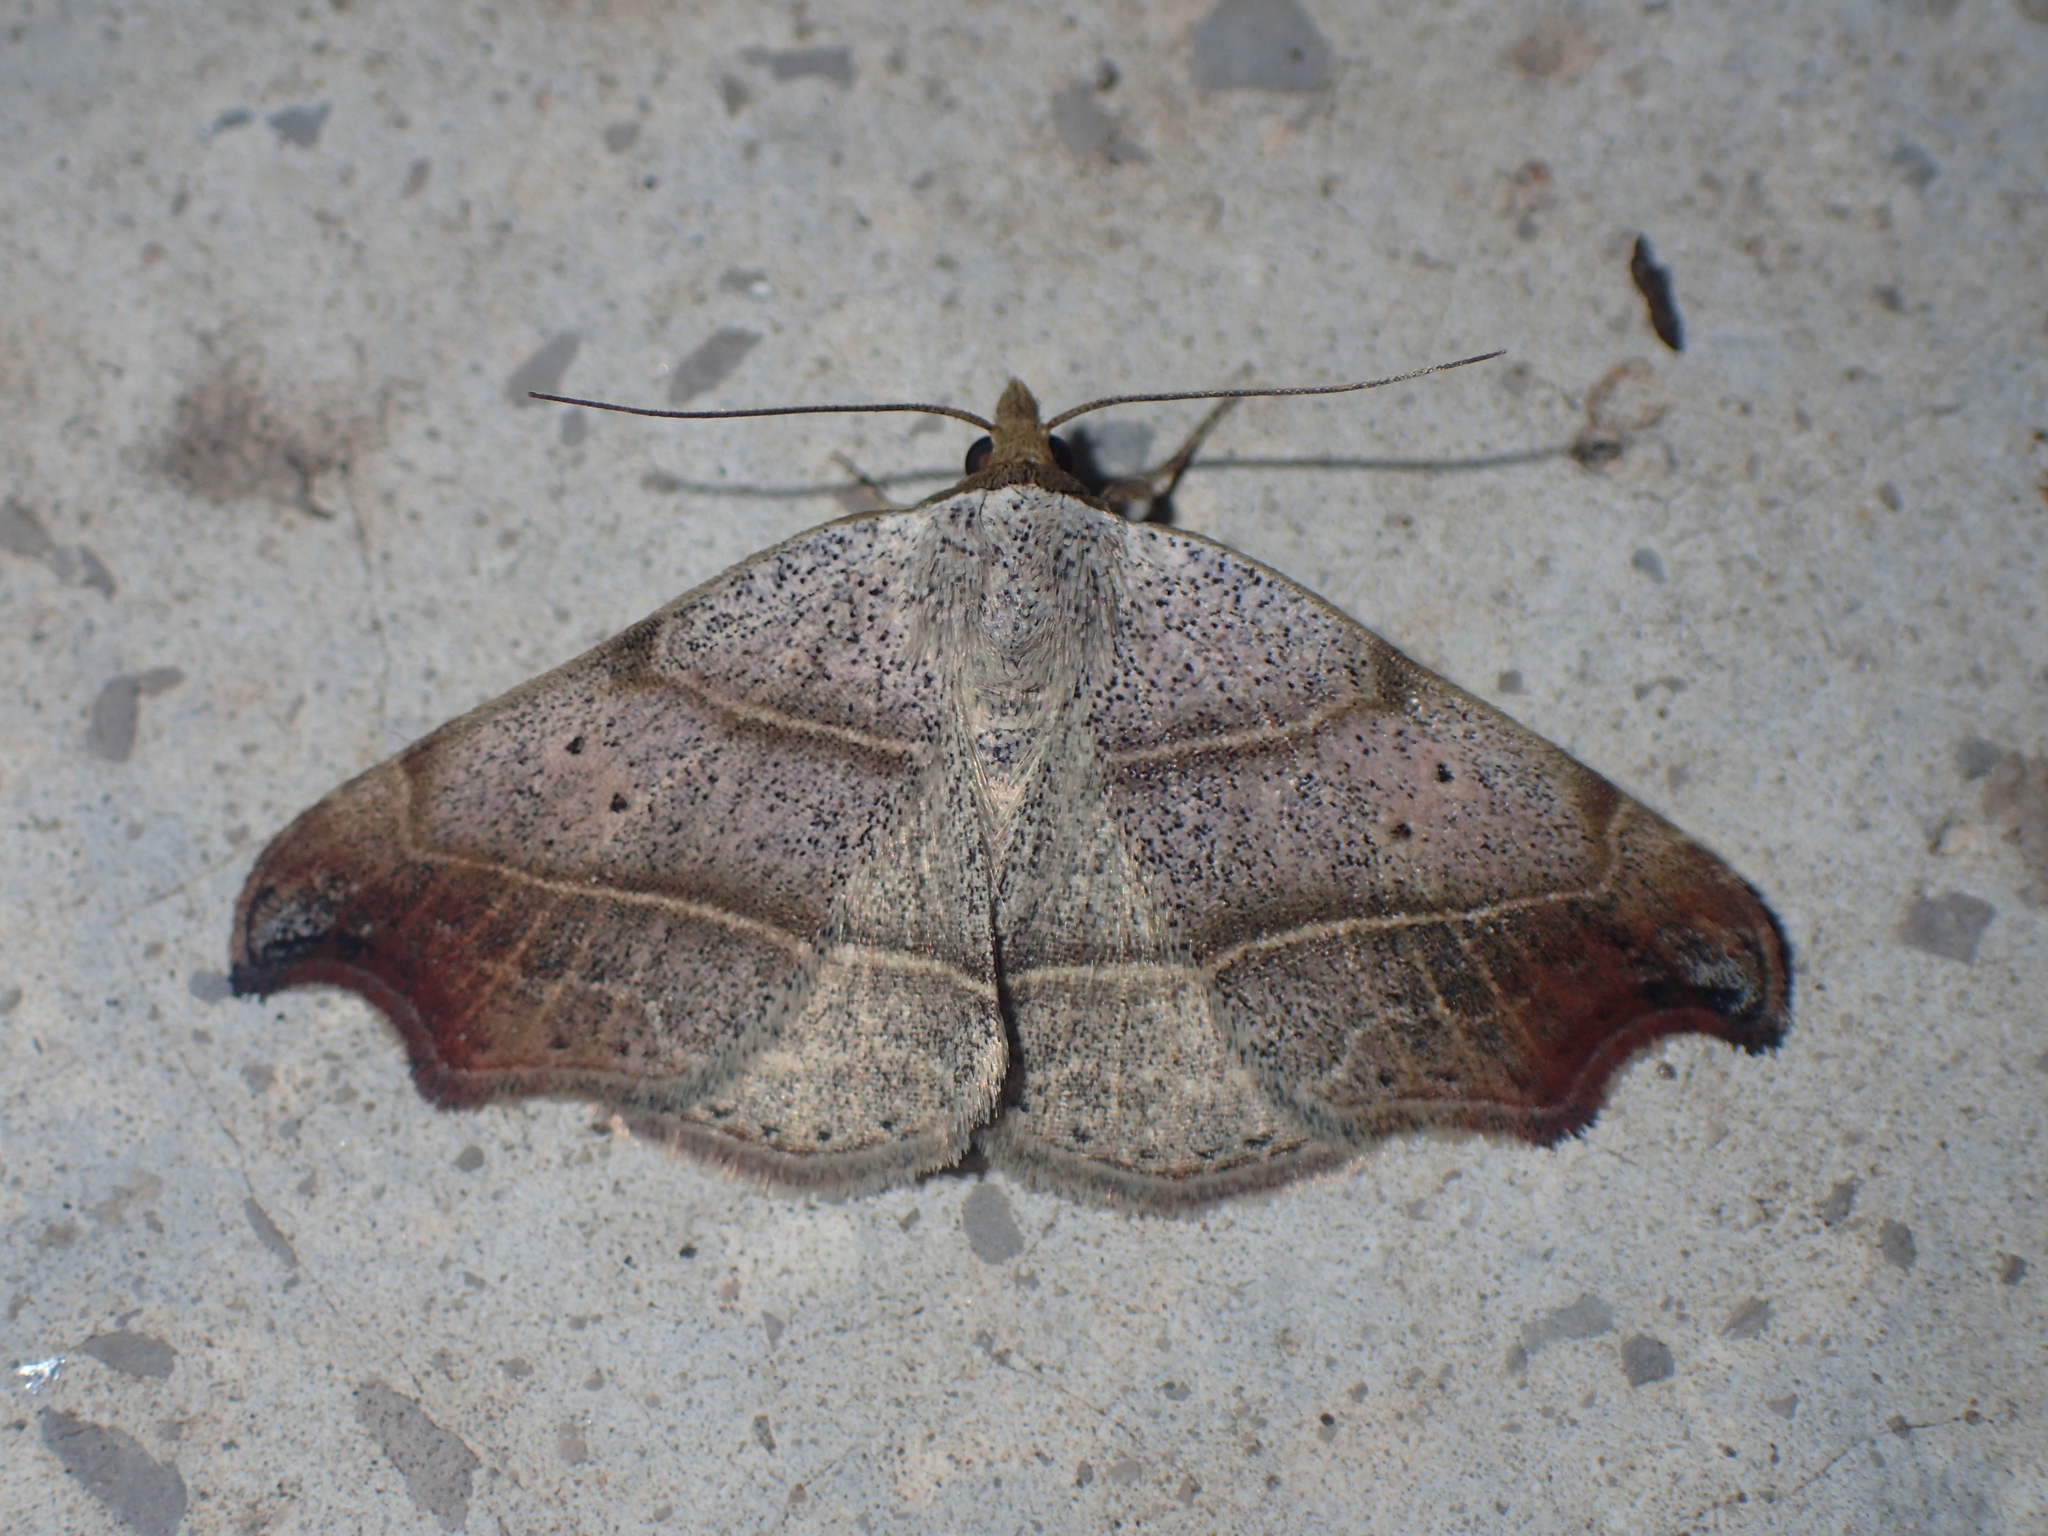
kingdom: Animalia
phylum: Arthropoda
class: Insecta
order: Lepidoptera
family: Erebidae
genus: Laspeyria
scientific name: Laspeyria flexula
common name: Beautiful hook-tip
